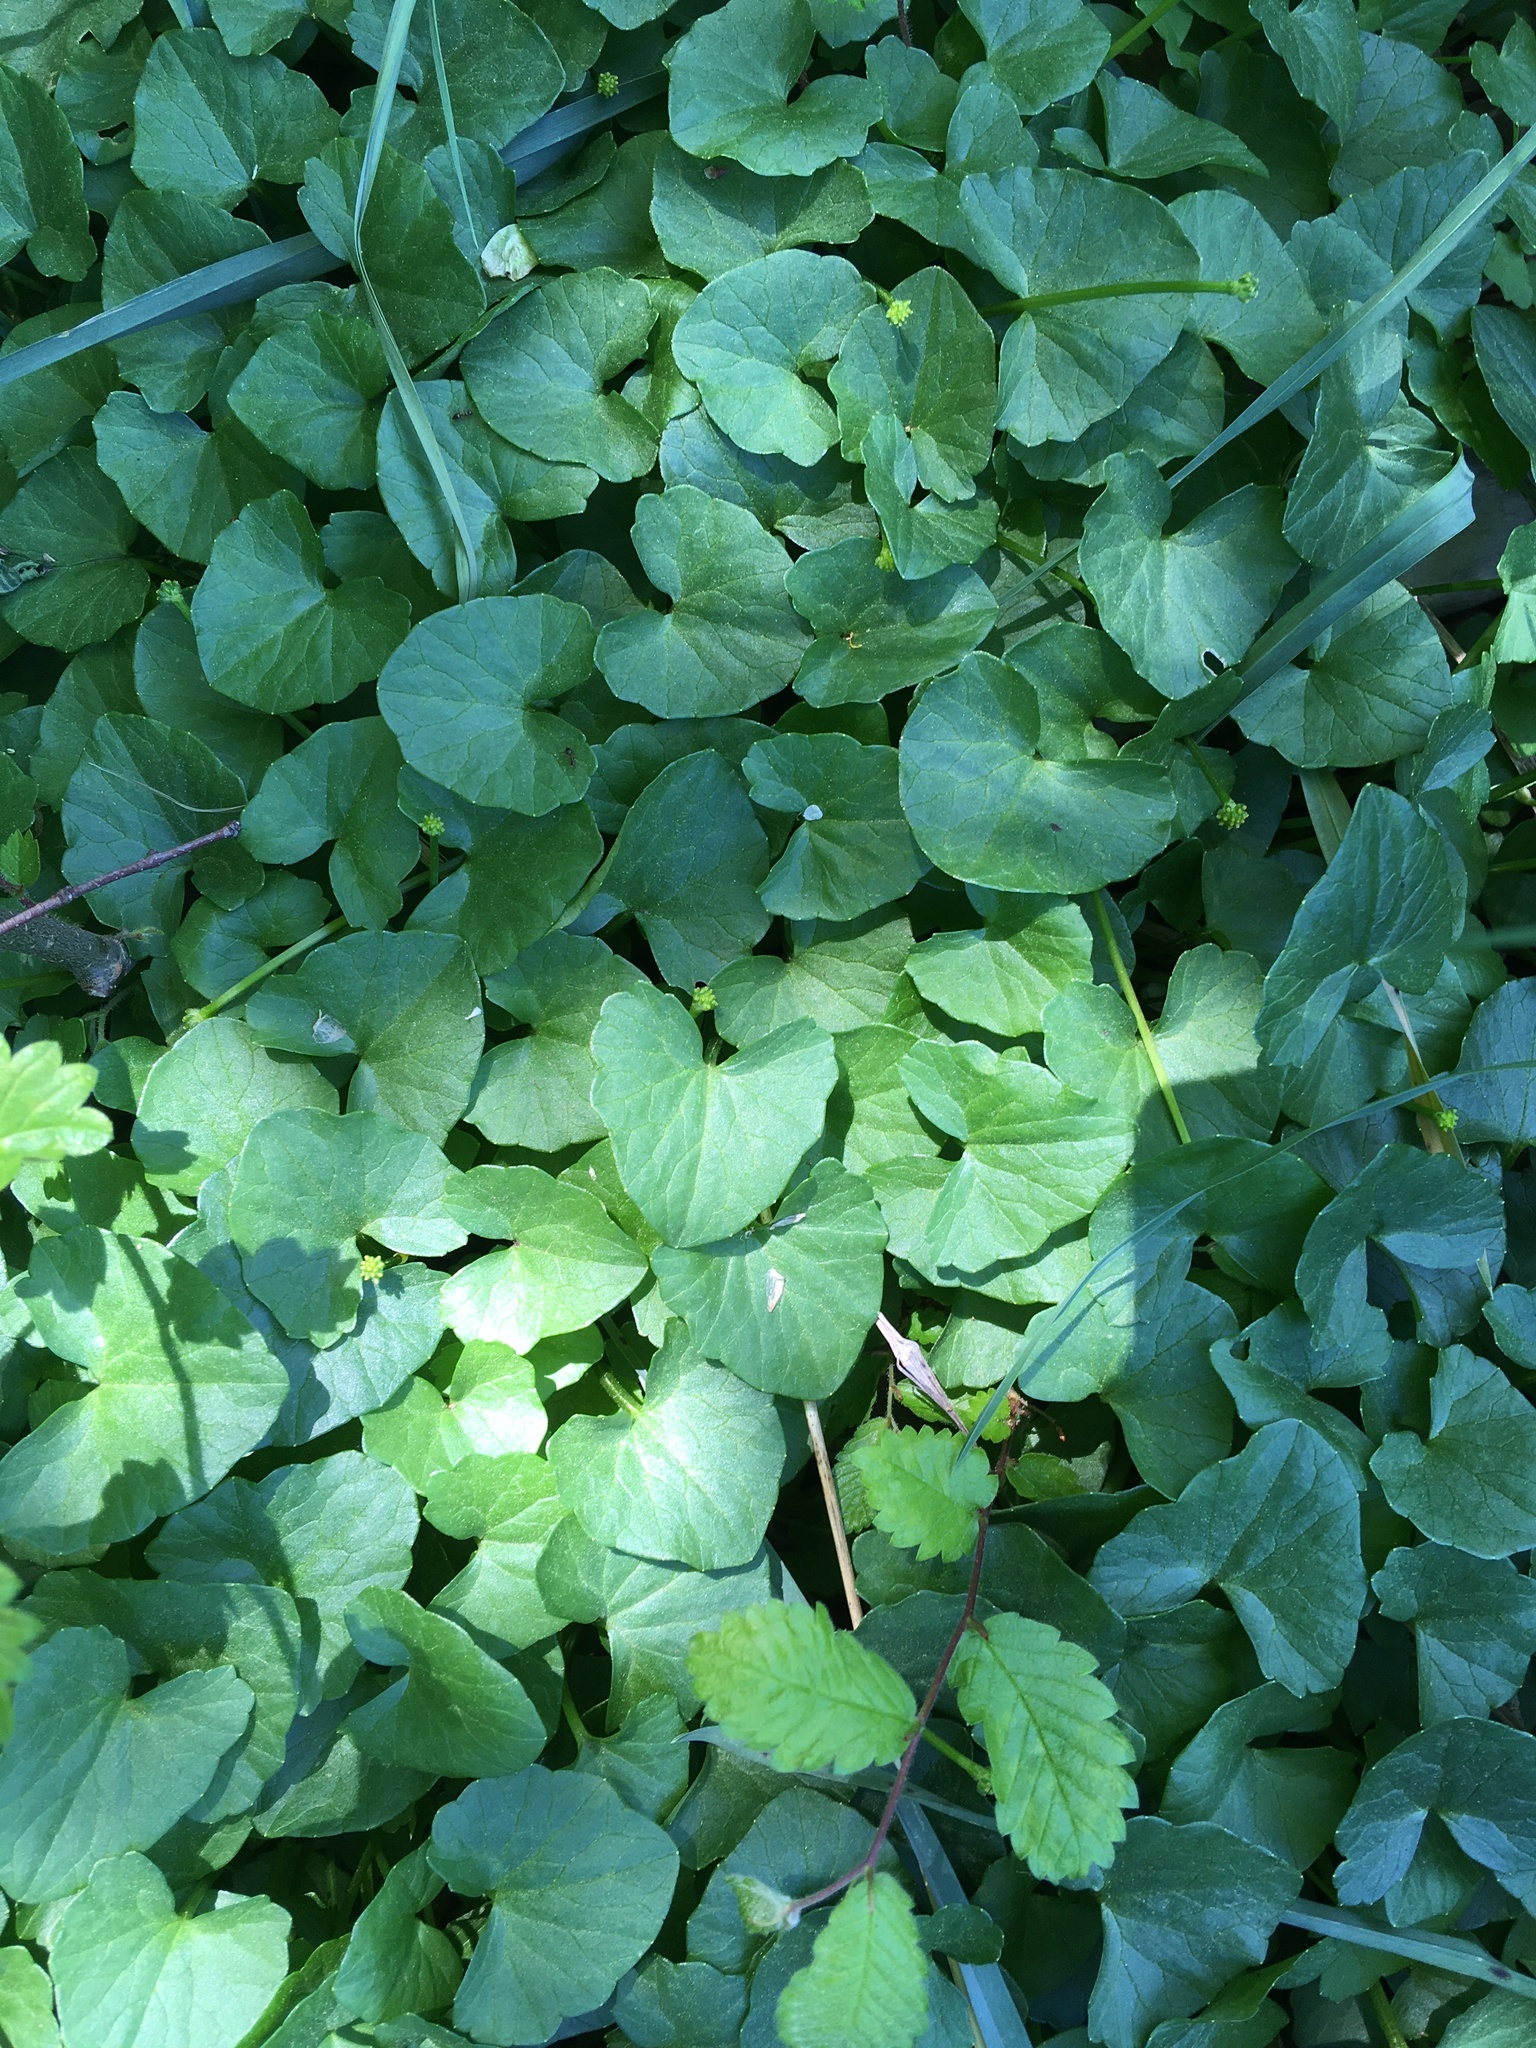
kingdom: Plantae
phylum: Tracheophyta
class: Magnoliopsida
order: Ranunculales
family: Ranunculaceae
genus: Ficaria
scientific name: Ficaria verna
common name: Lesser celandine
